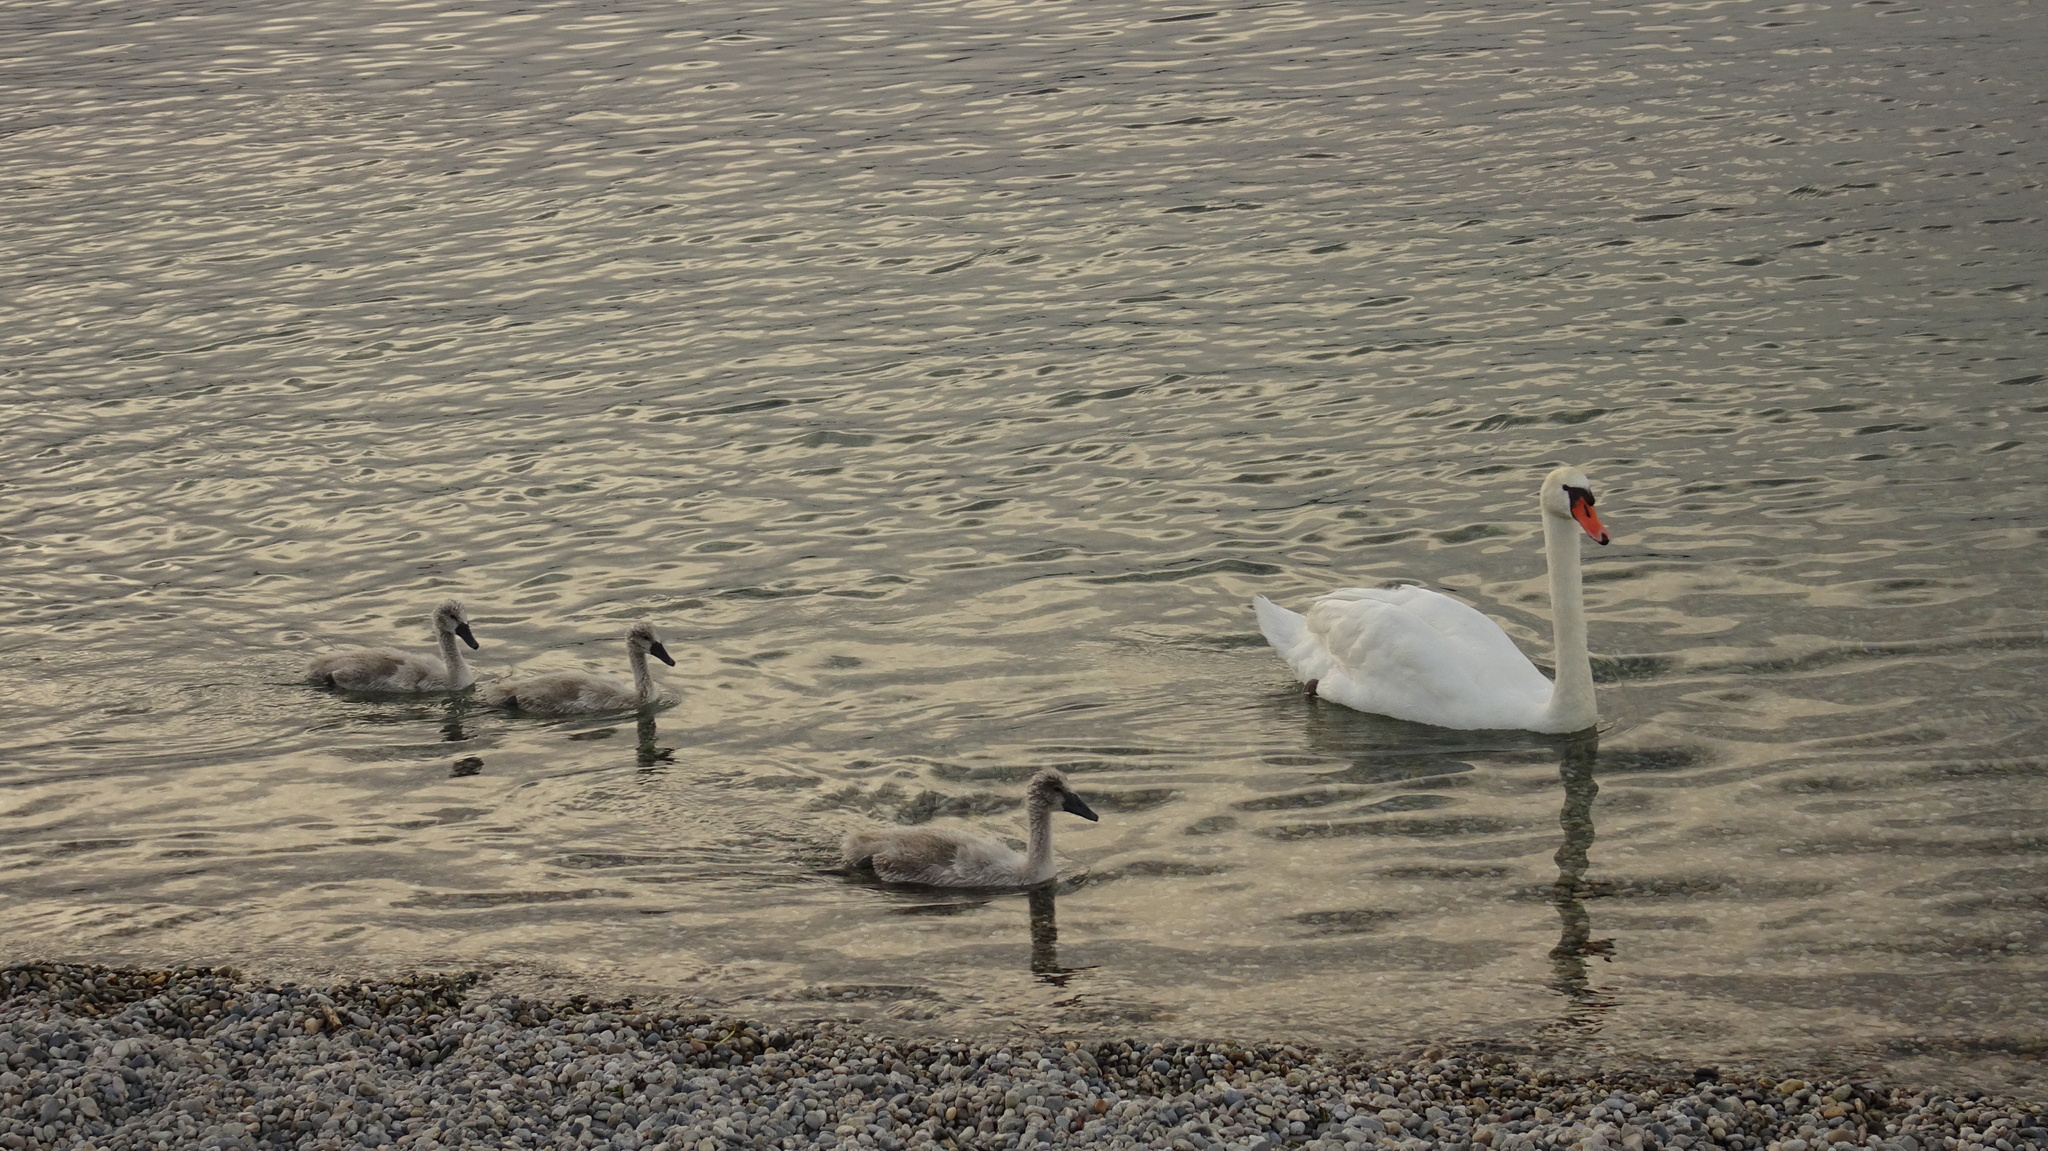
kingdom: Animalia
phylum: Chordata
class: Aves
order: Anseriformes
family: Anatidae
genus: Cygnus
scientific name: Cygnus olor
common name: Mute swan
